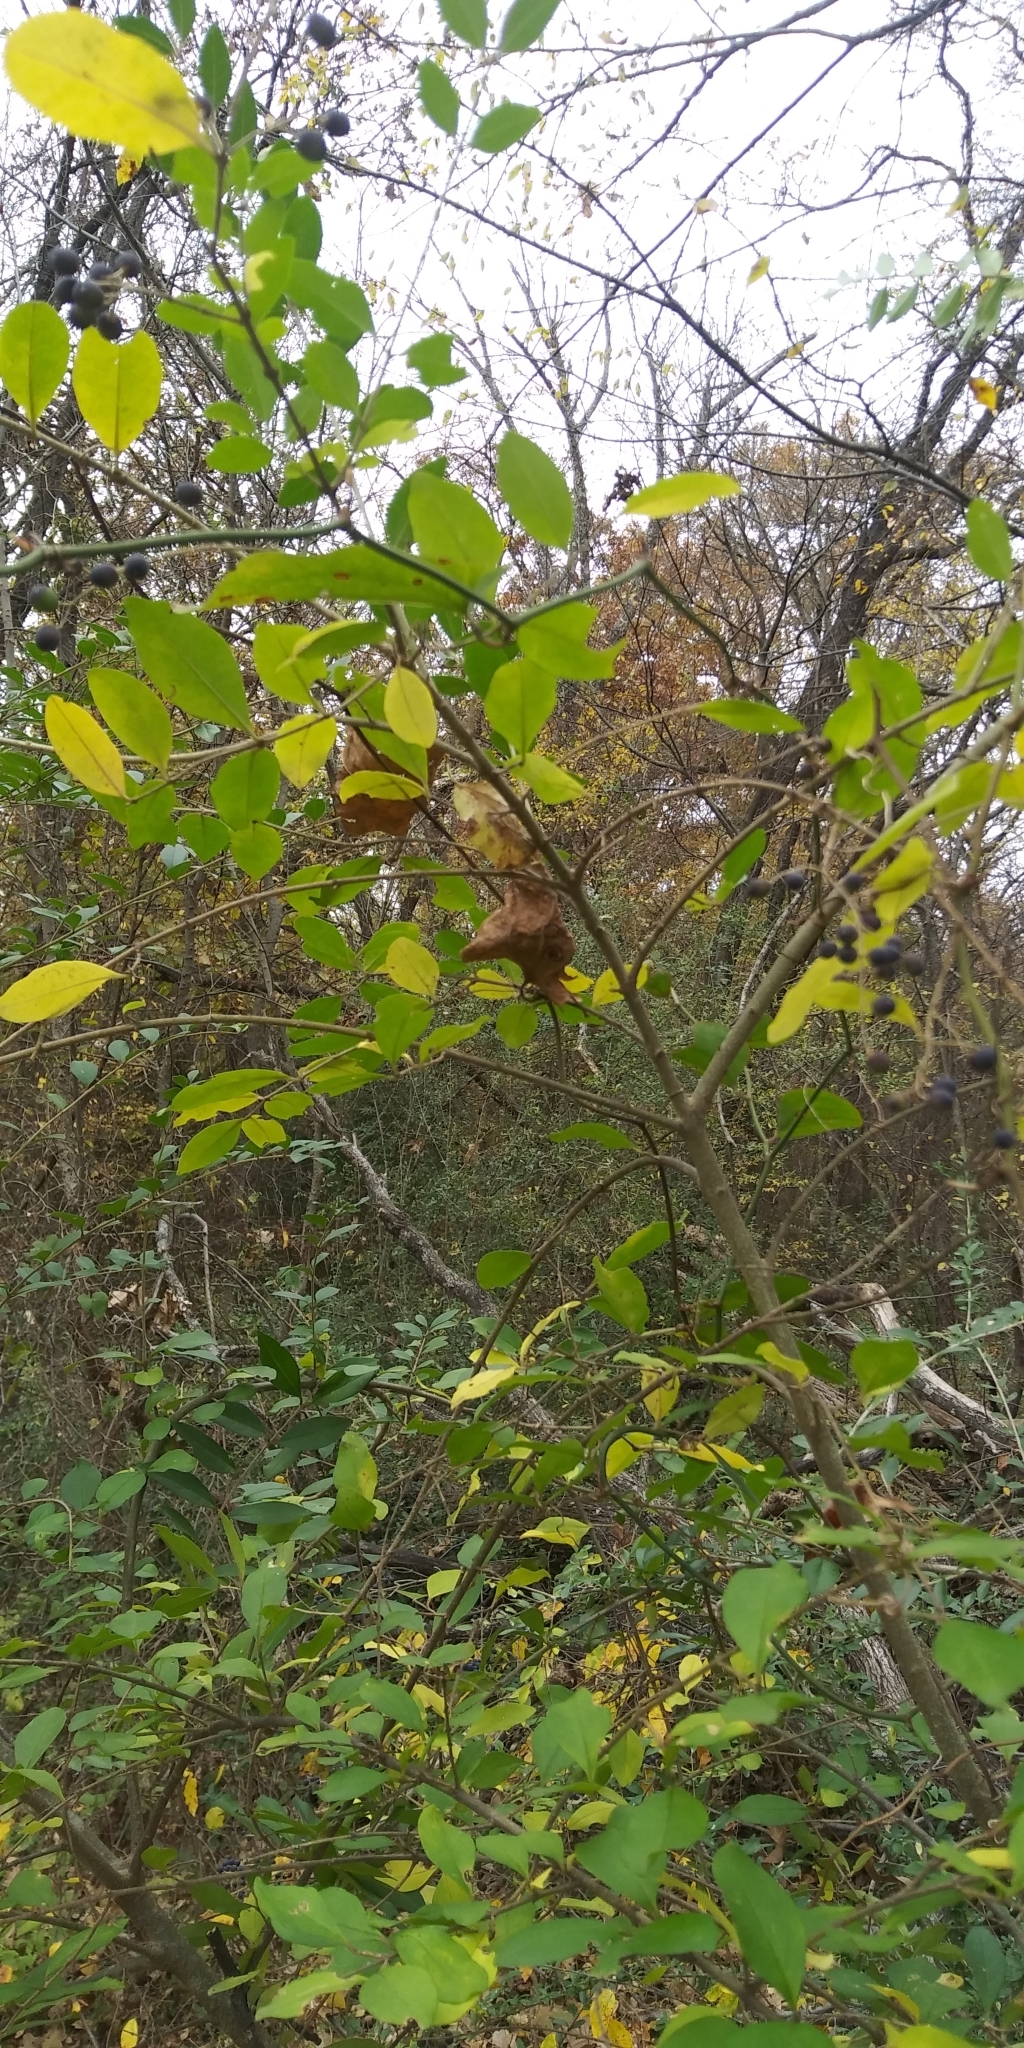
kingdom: Plantae
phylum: Tracheophyta
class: Magnoliopsida
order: Lamiales
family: Oleaceae
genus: Ligustrum
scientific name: Ligustrum sinense
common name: Chinese privet
